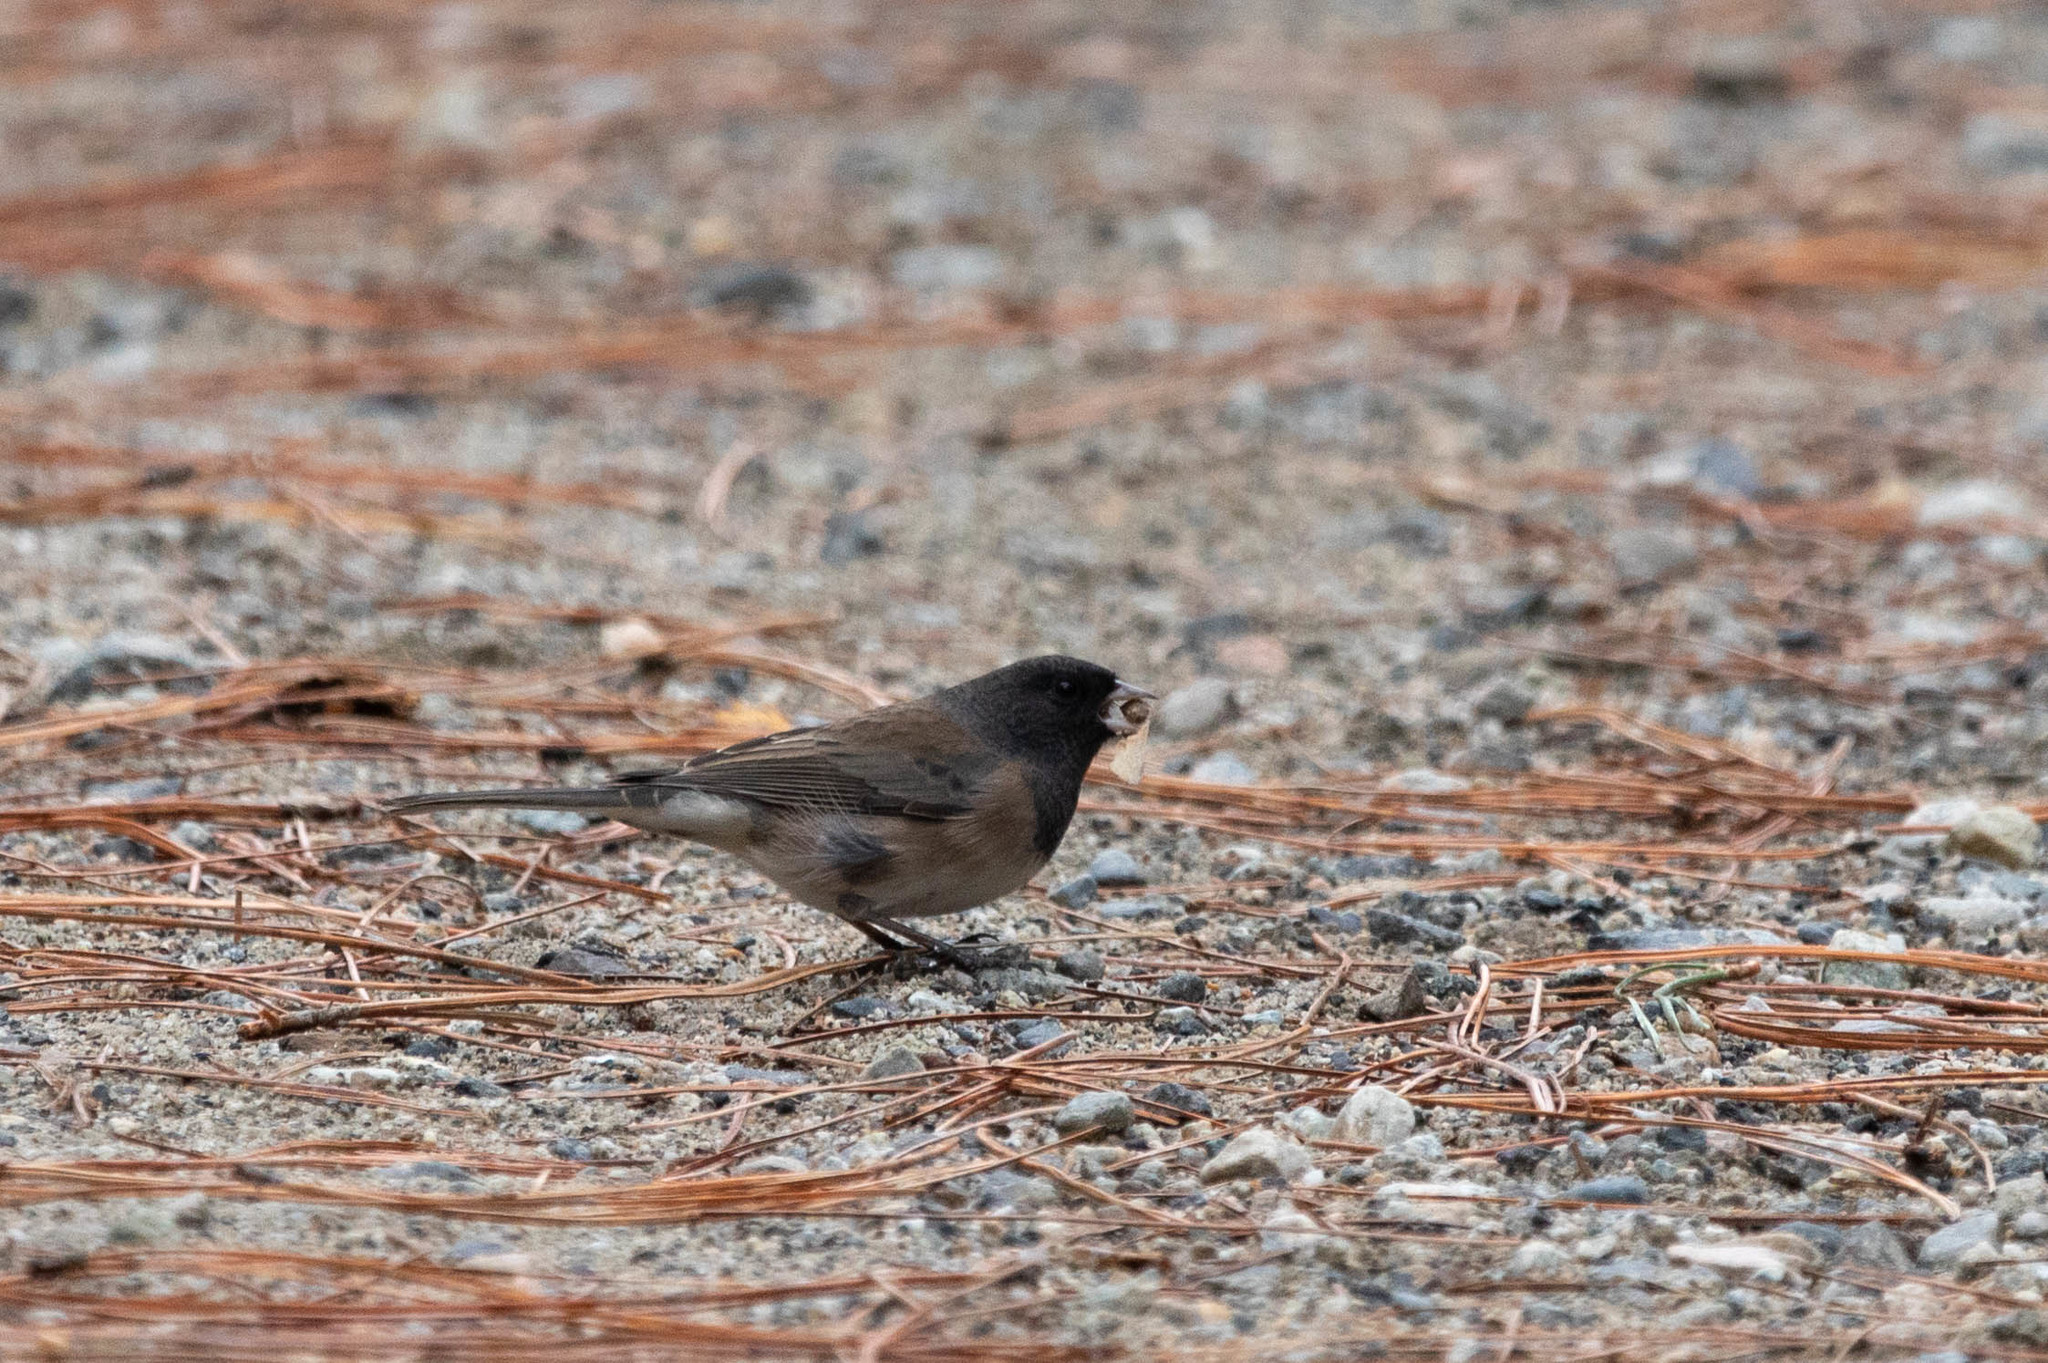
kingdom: Animalia
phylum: Chordata
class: Aves
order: Passeriformes
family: Passerellidae
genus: Junco
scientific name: Junco hyemalis
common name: Dark-eyed junco
